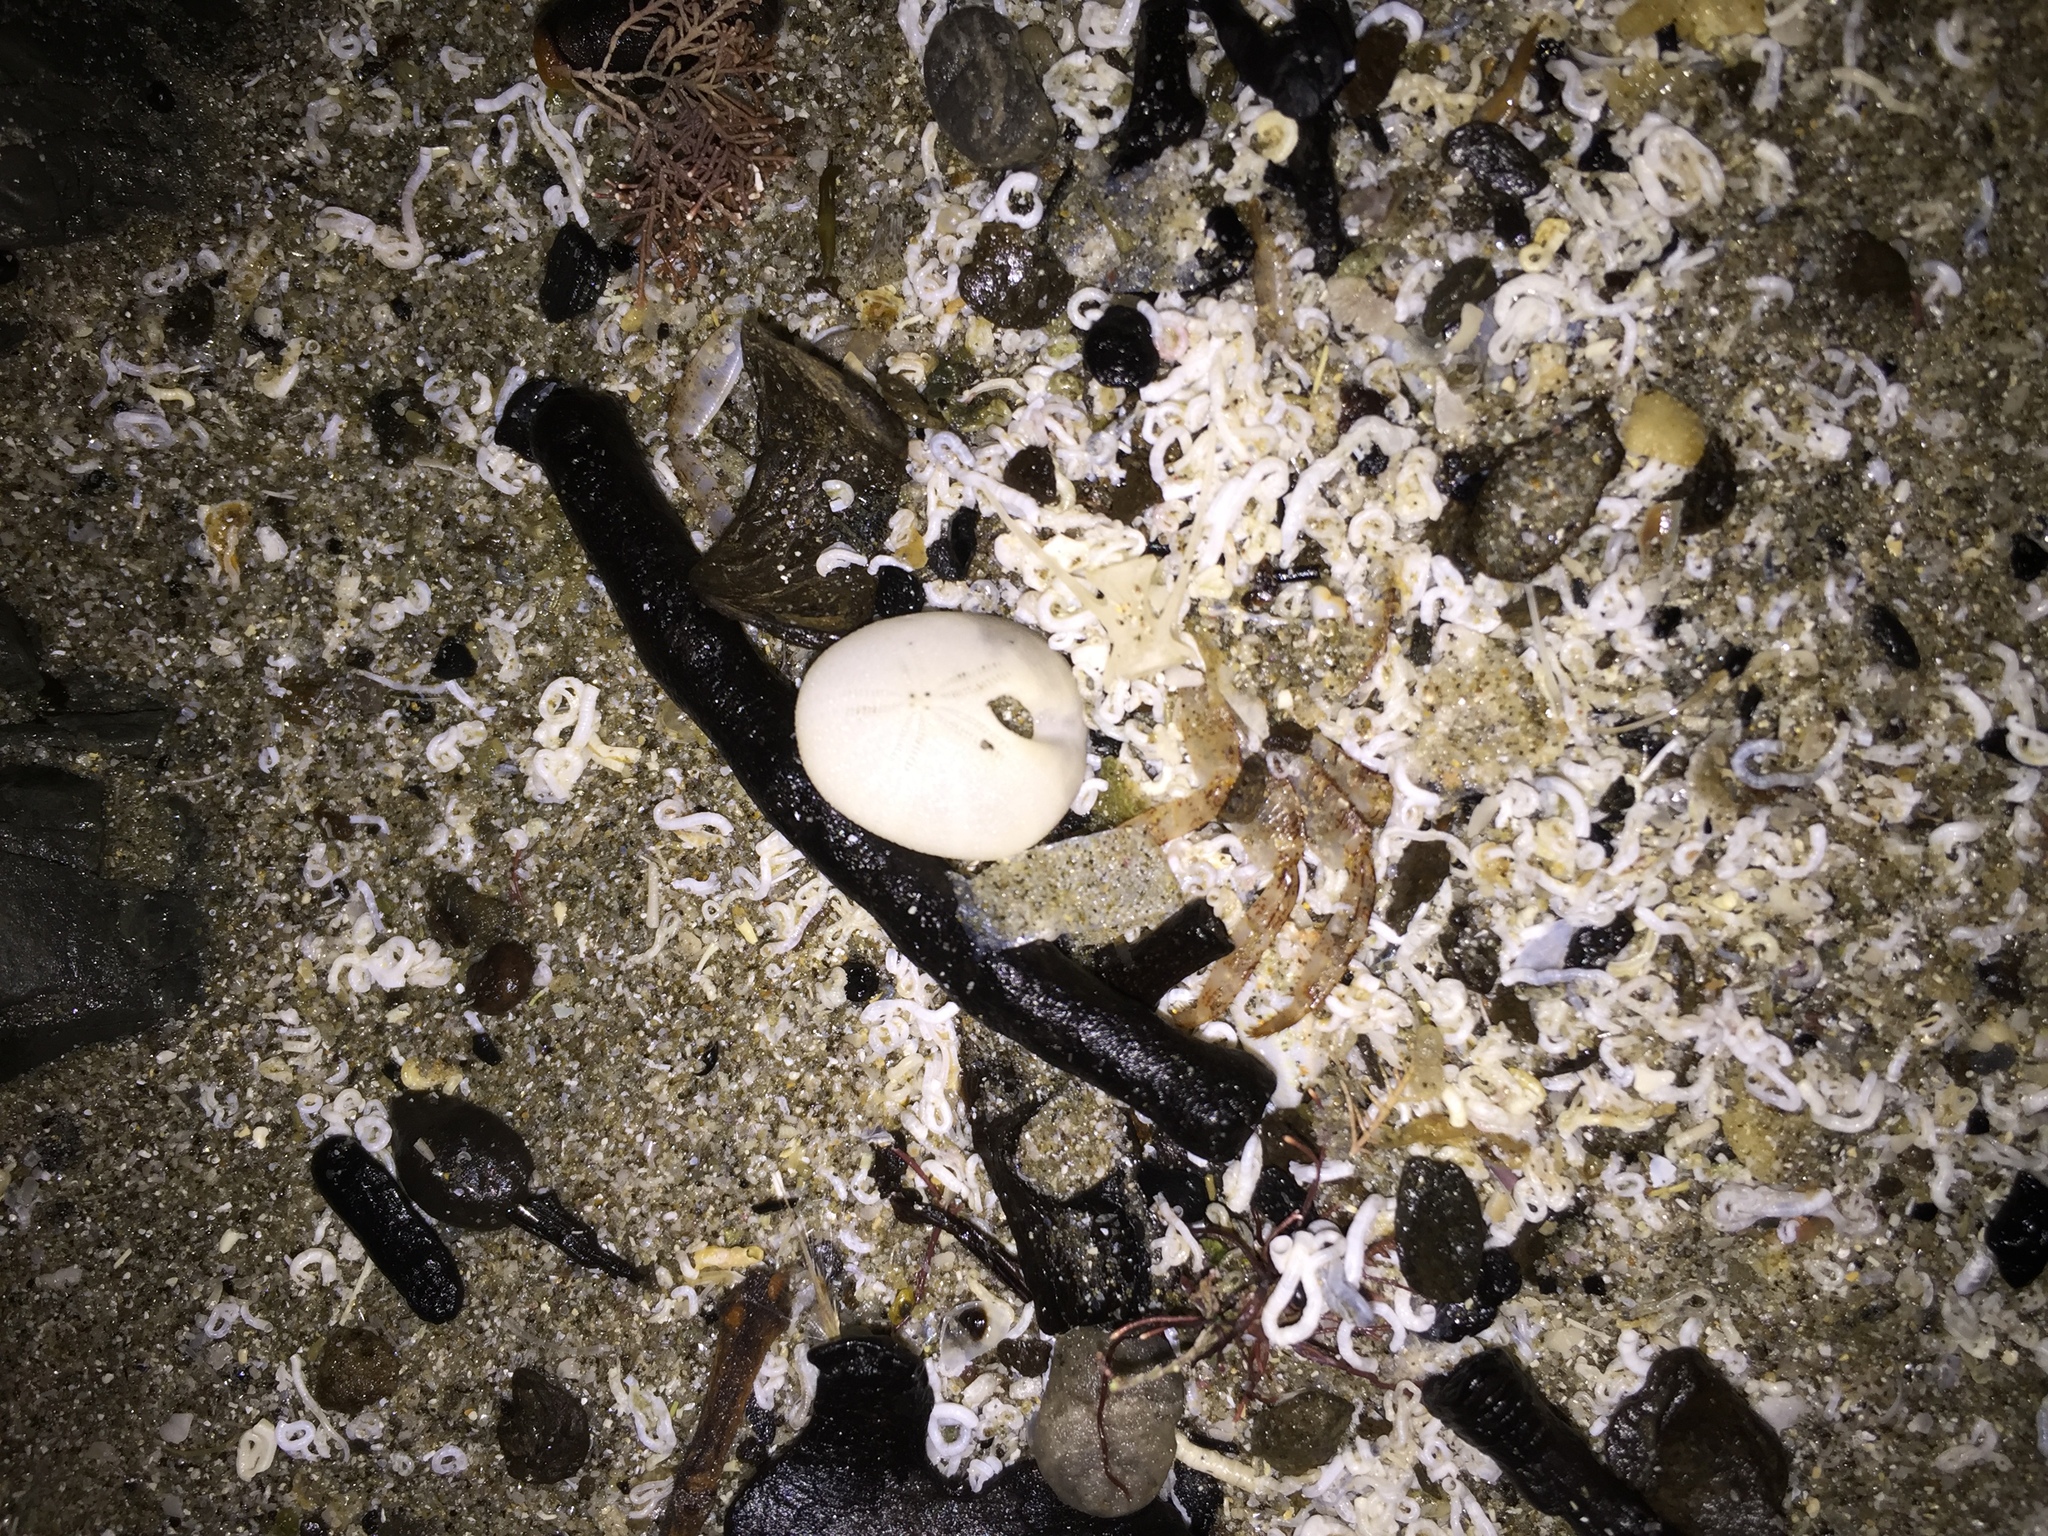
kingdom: Animalia
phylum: Echinodermata
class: Echinoidea
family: Apatopygidae
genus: Apatopygus
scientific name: Apatopygus recens
